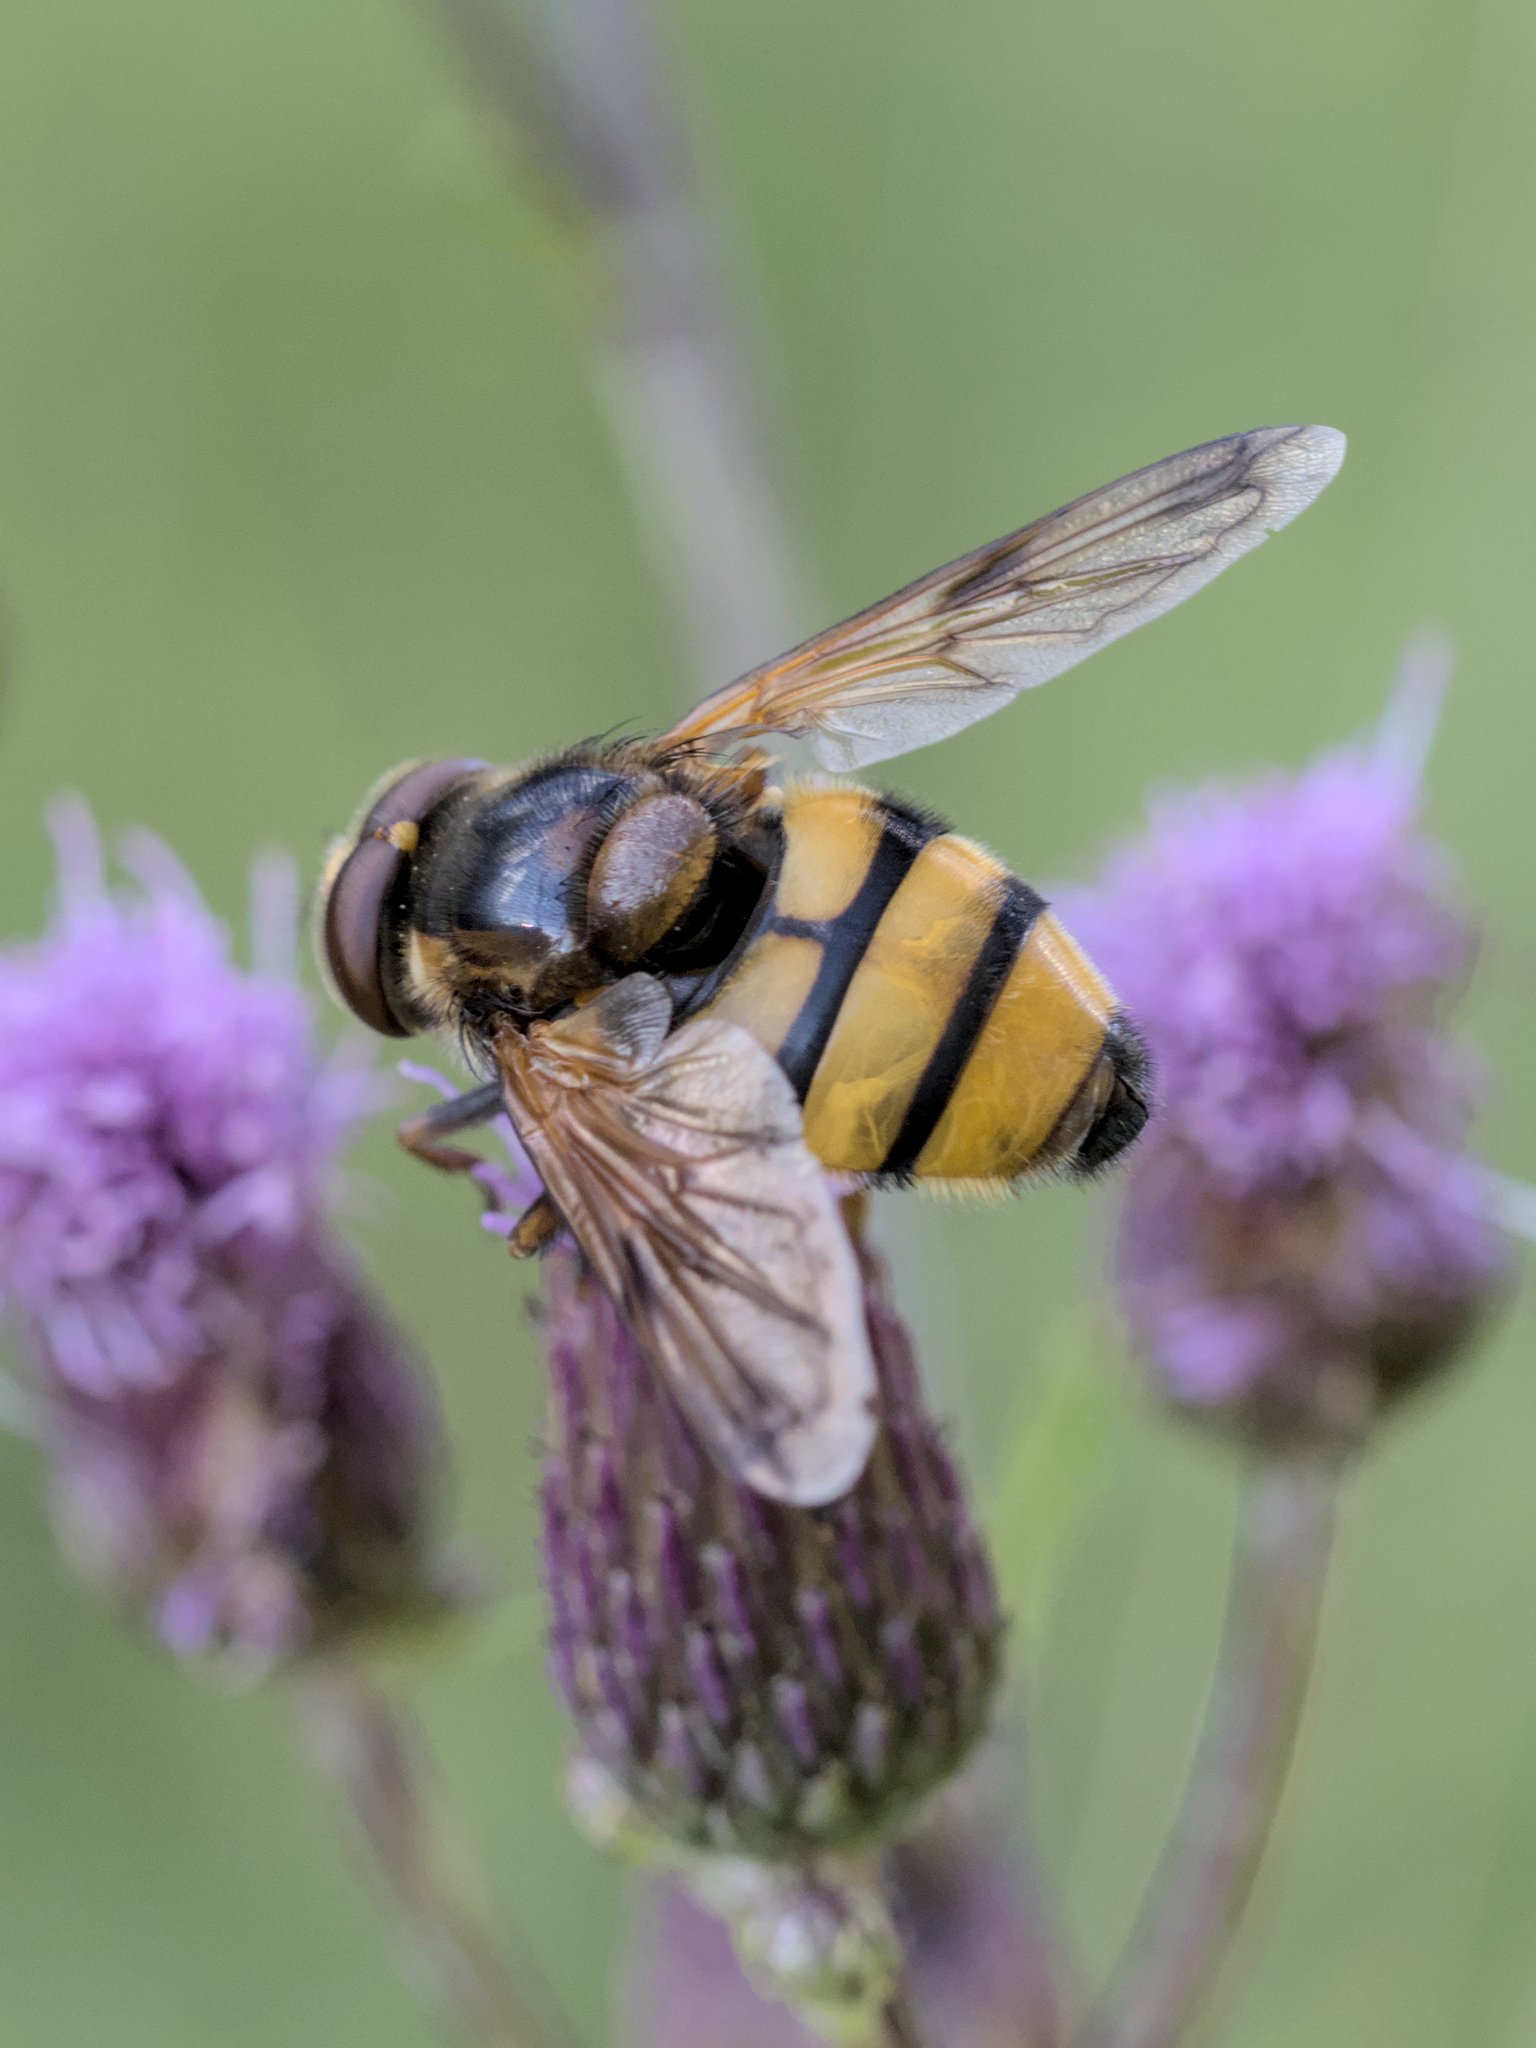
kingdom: Animalia
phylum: Arthropoda
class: Insecta
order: Diptera
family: Syrphidae
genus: Volucella
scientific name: Volucella inanis
